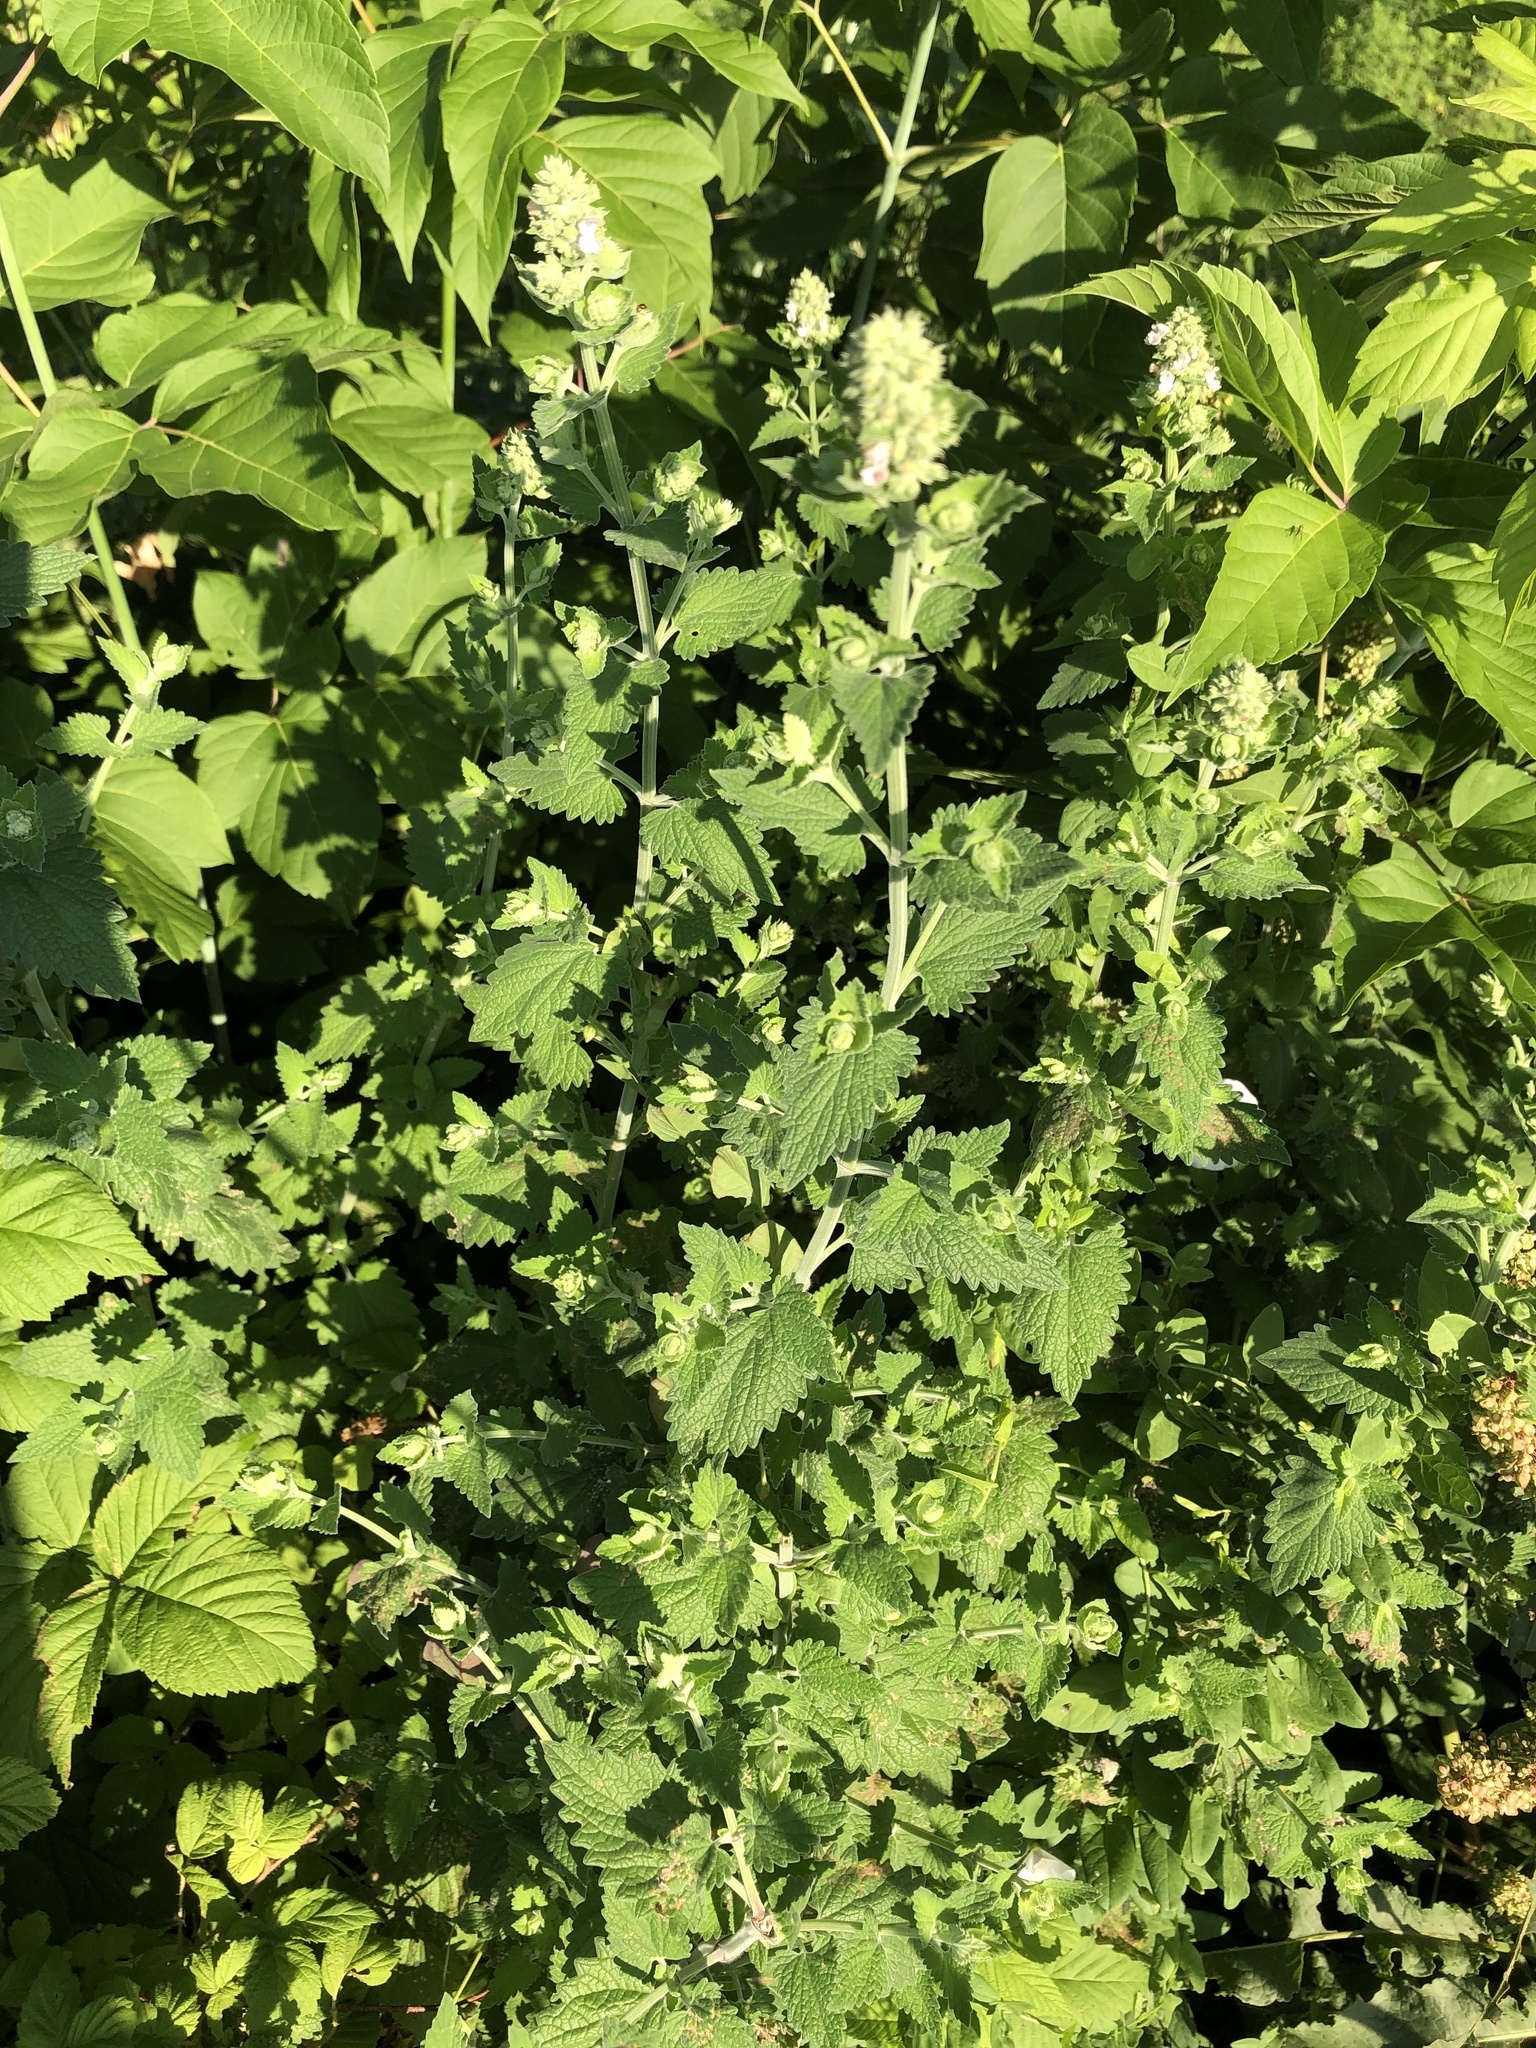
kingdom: Plantae
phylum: Tracheophyta
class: Magnoliopsida
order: Lamiales
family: Lamiaceae
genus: Nepeta
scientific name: Nepeta cataria
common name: Catnip
